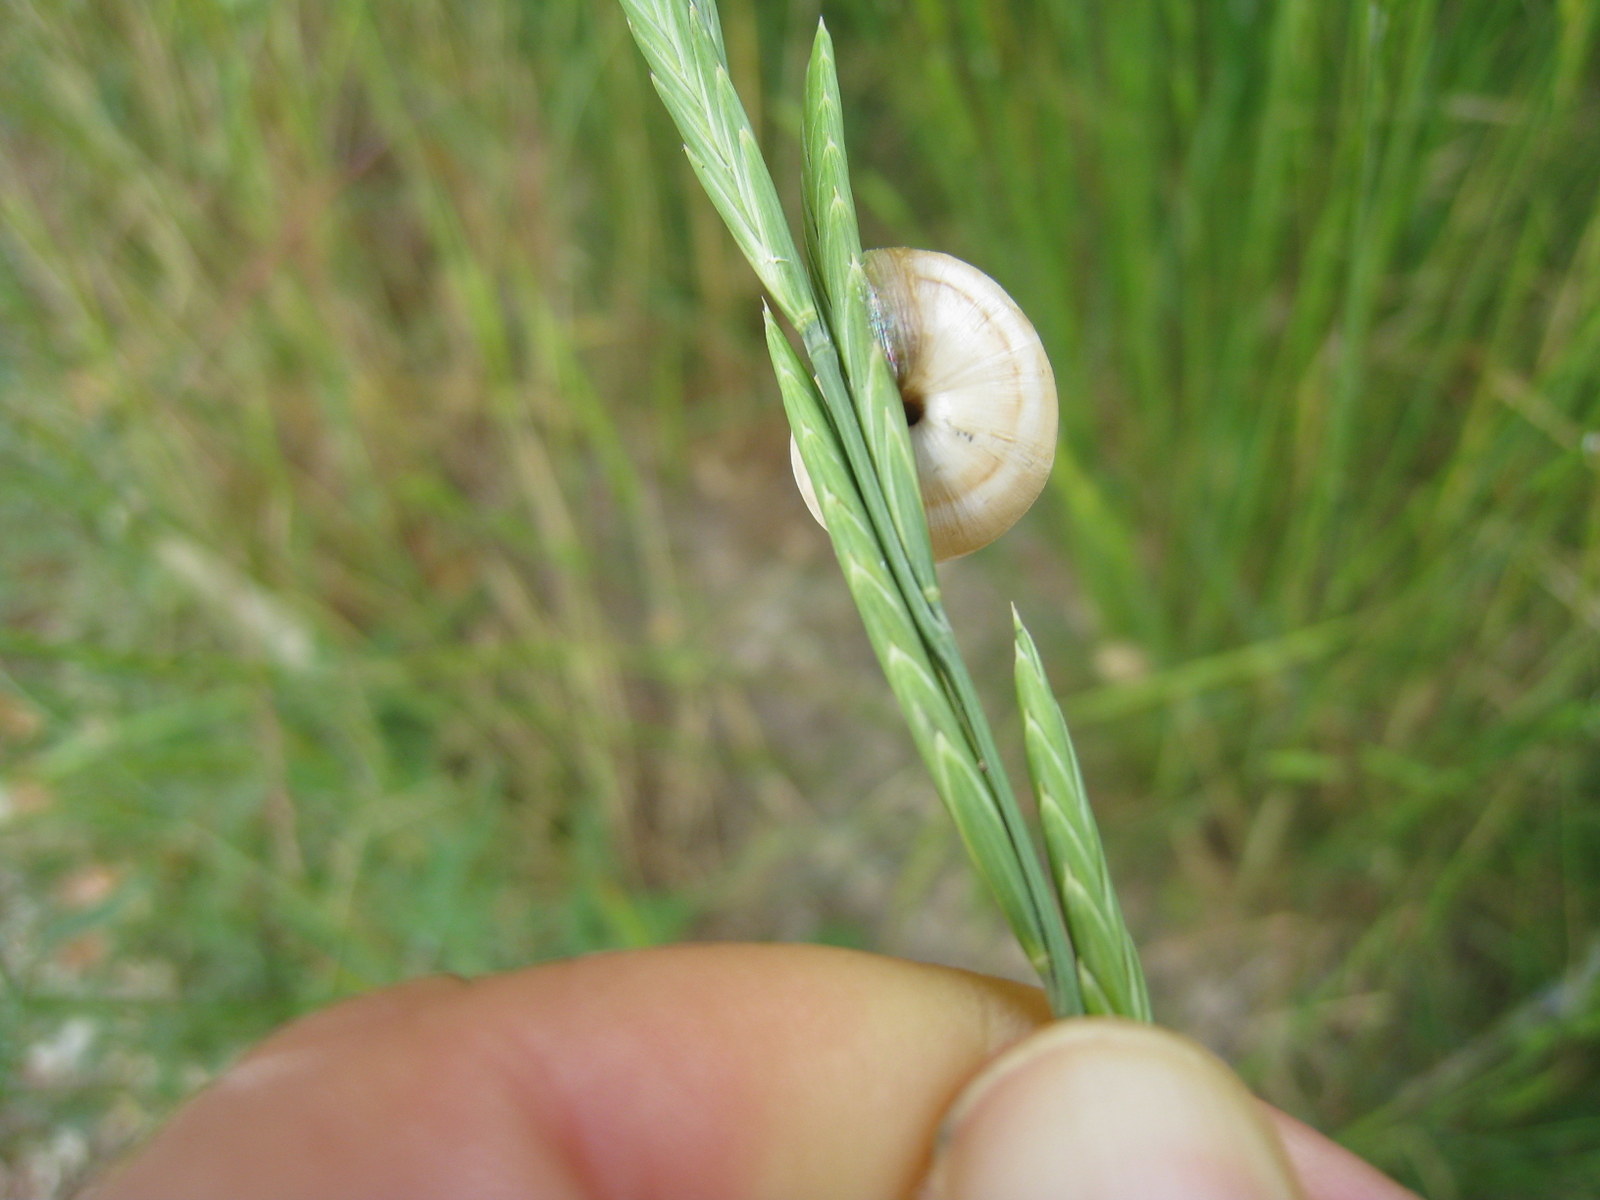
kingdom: Animalia
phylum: Mollusca
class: Gastropoda
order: Stylommatophora
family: Helicidae
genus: Theba
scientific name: Theba pisana
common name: White snail
